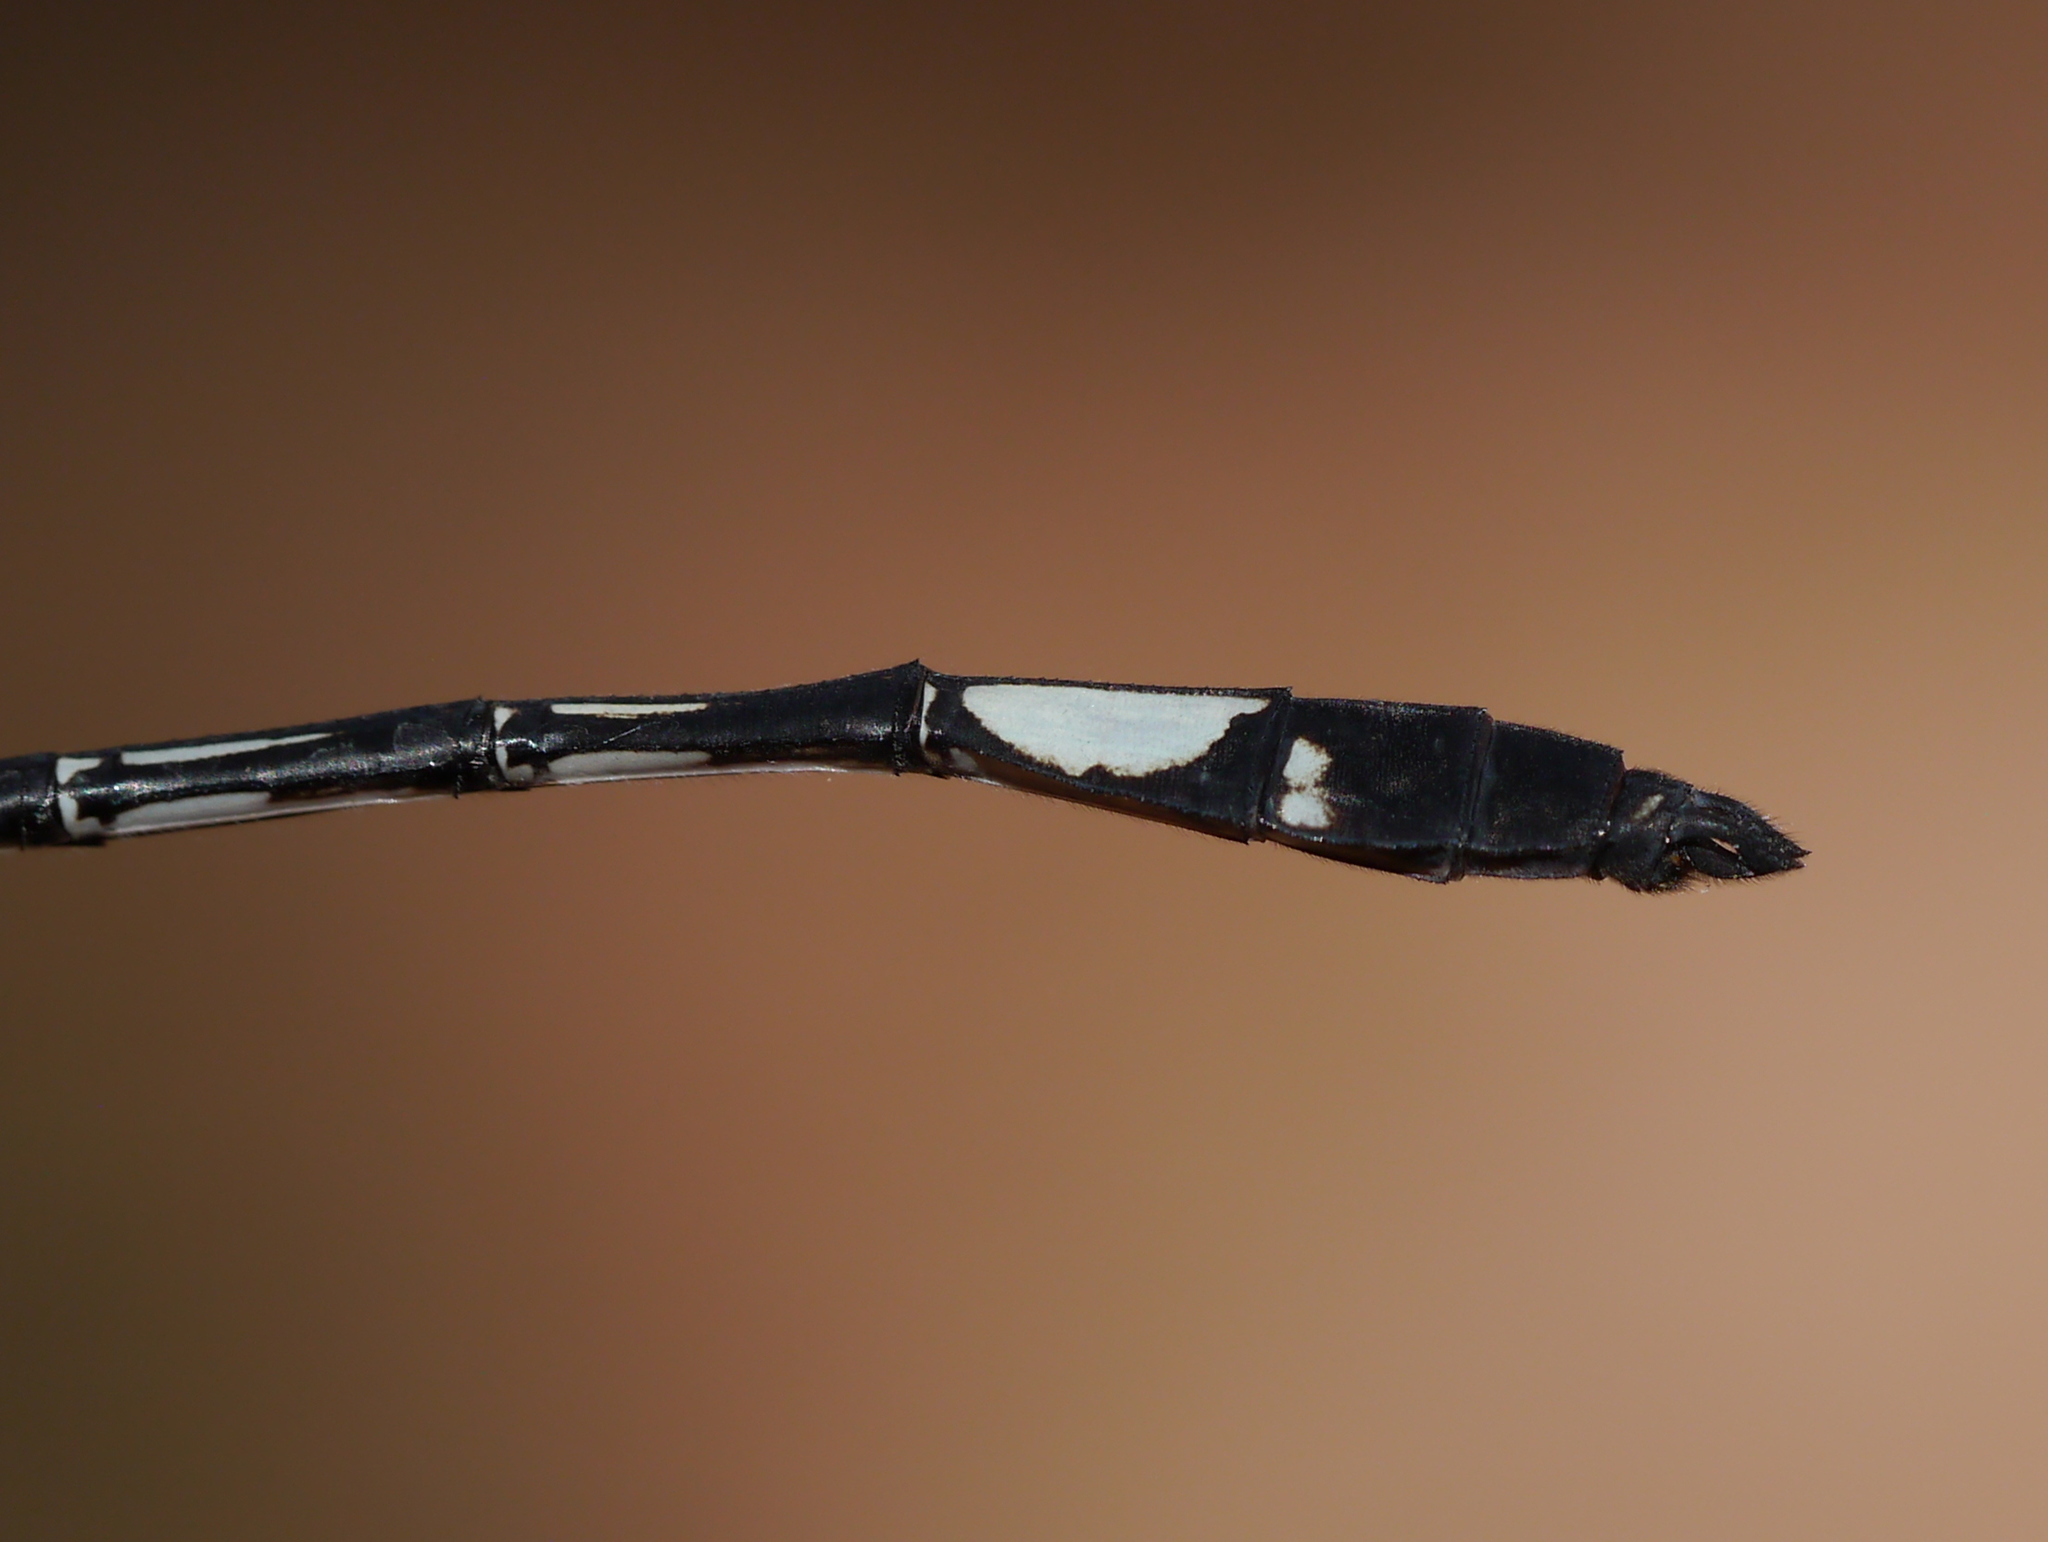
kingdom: Animalia
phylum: Arthropoda
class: Insecta
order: Odonata
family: Libellulidae
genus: Brechmorhoga
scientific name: Brechmorhoga mendax
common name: Pale-faced clubskimmer
